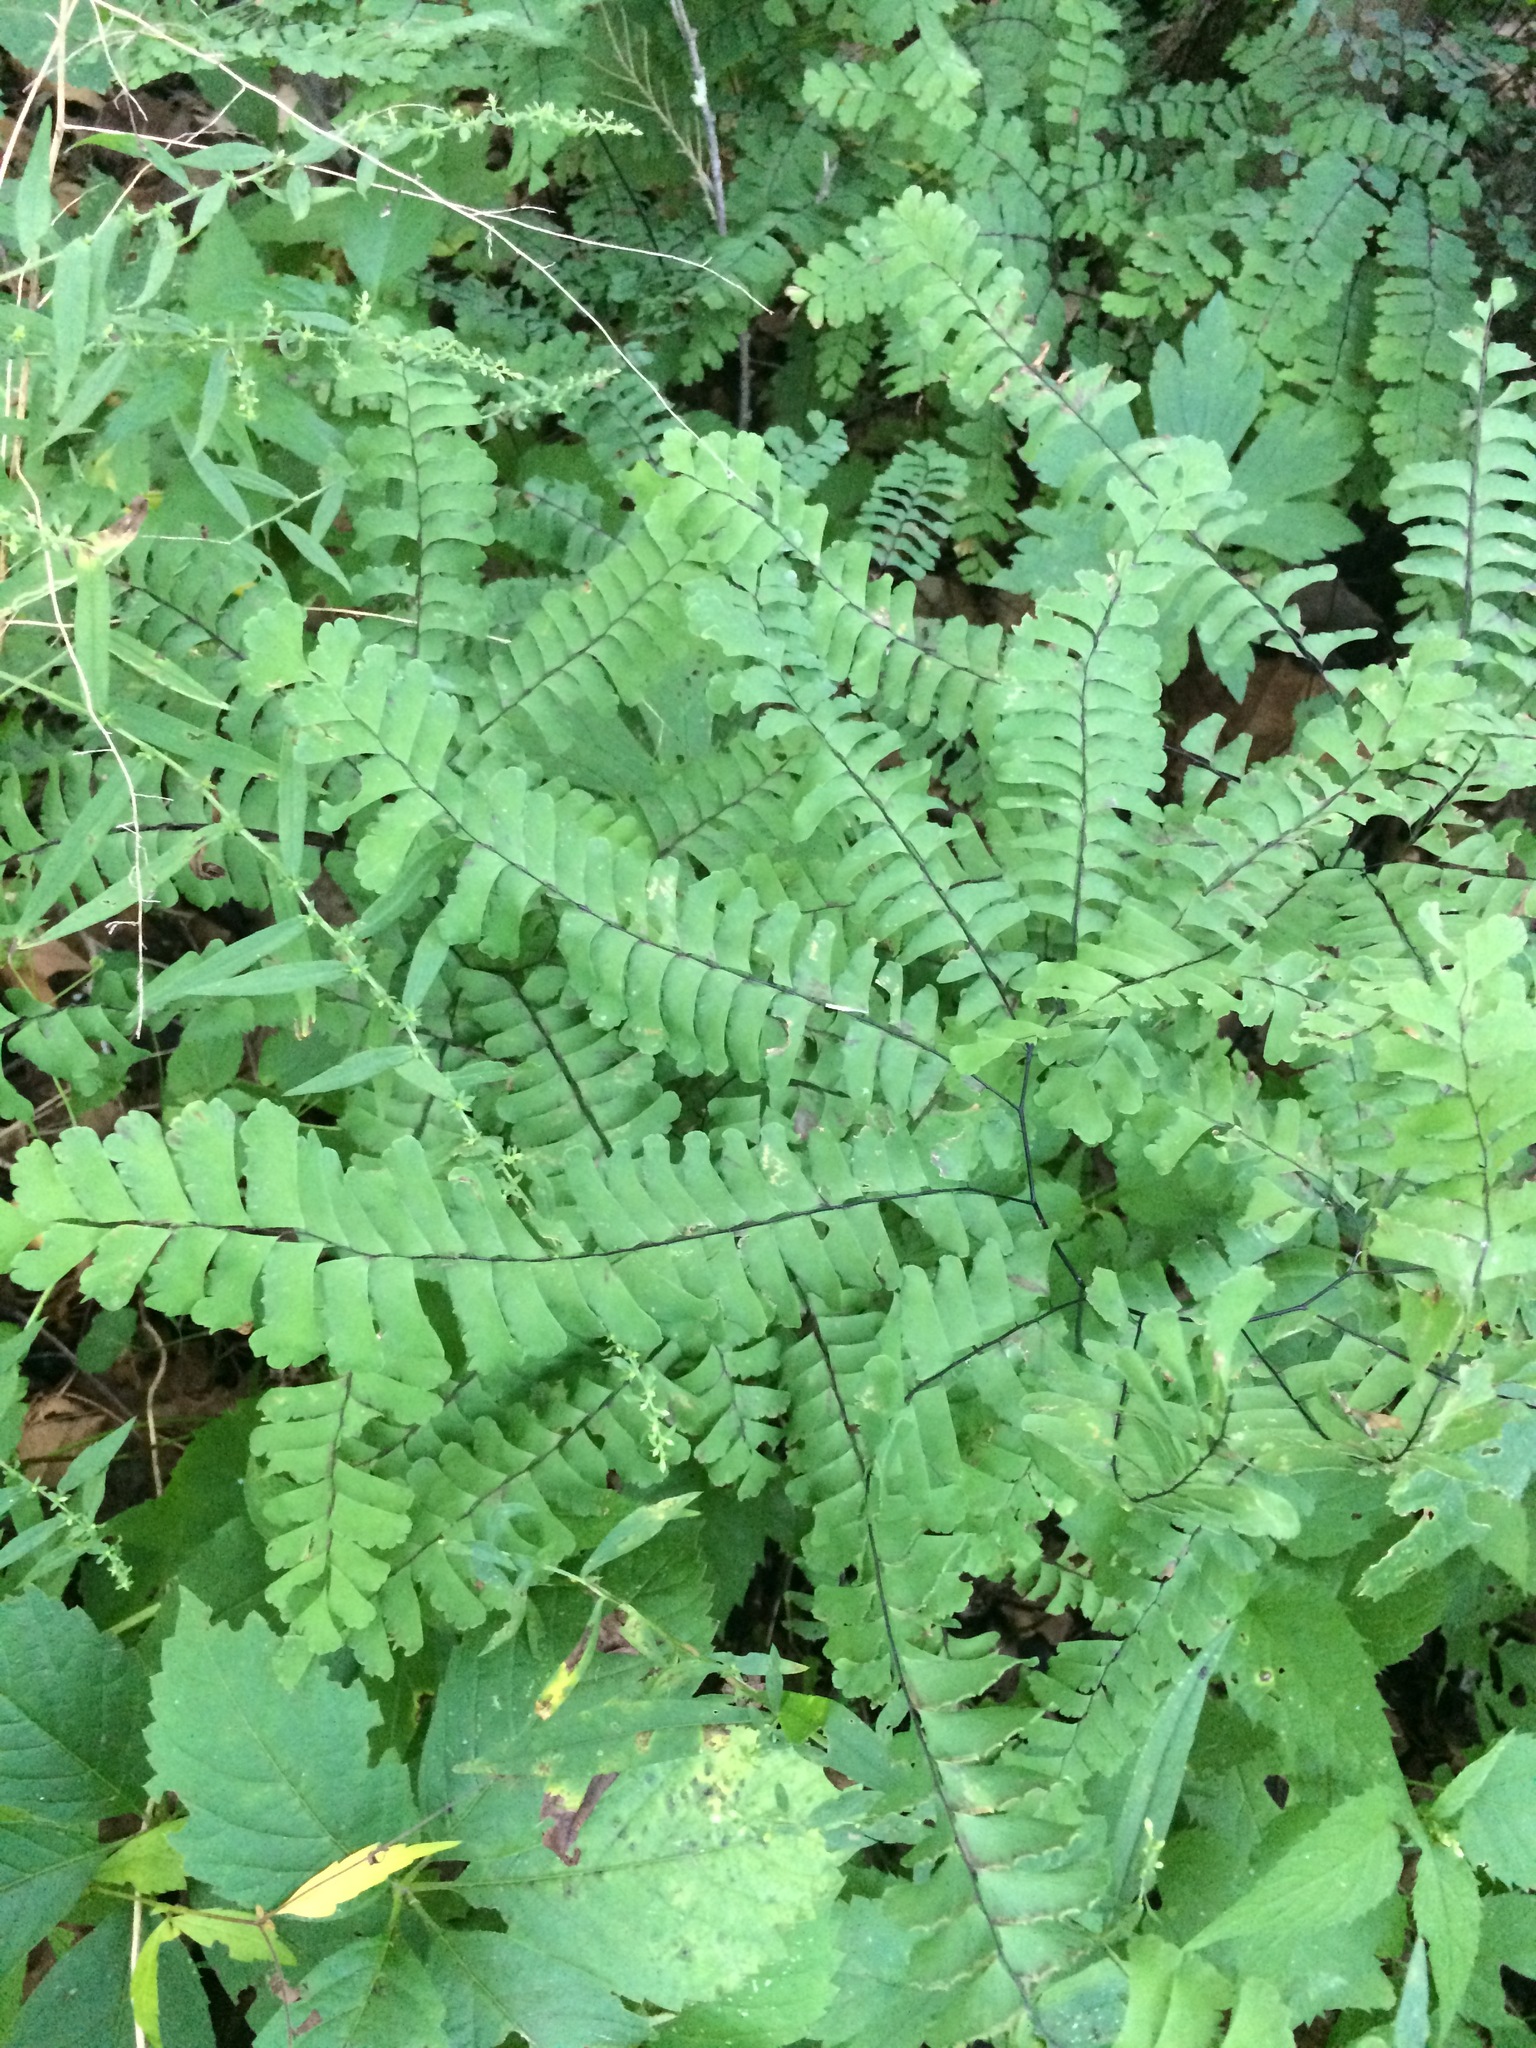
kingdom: Plantae
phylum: Tracheophyta
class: Polypodiopsida
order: Polypodiales
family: Pteridaceae
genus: Adiantum
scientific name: Adiantum pedatum
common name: Five-finger fern
